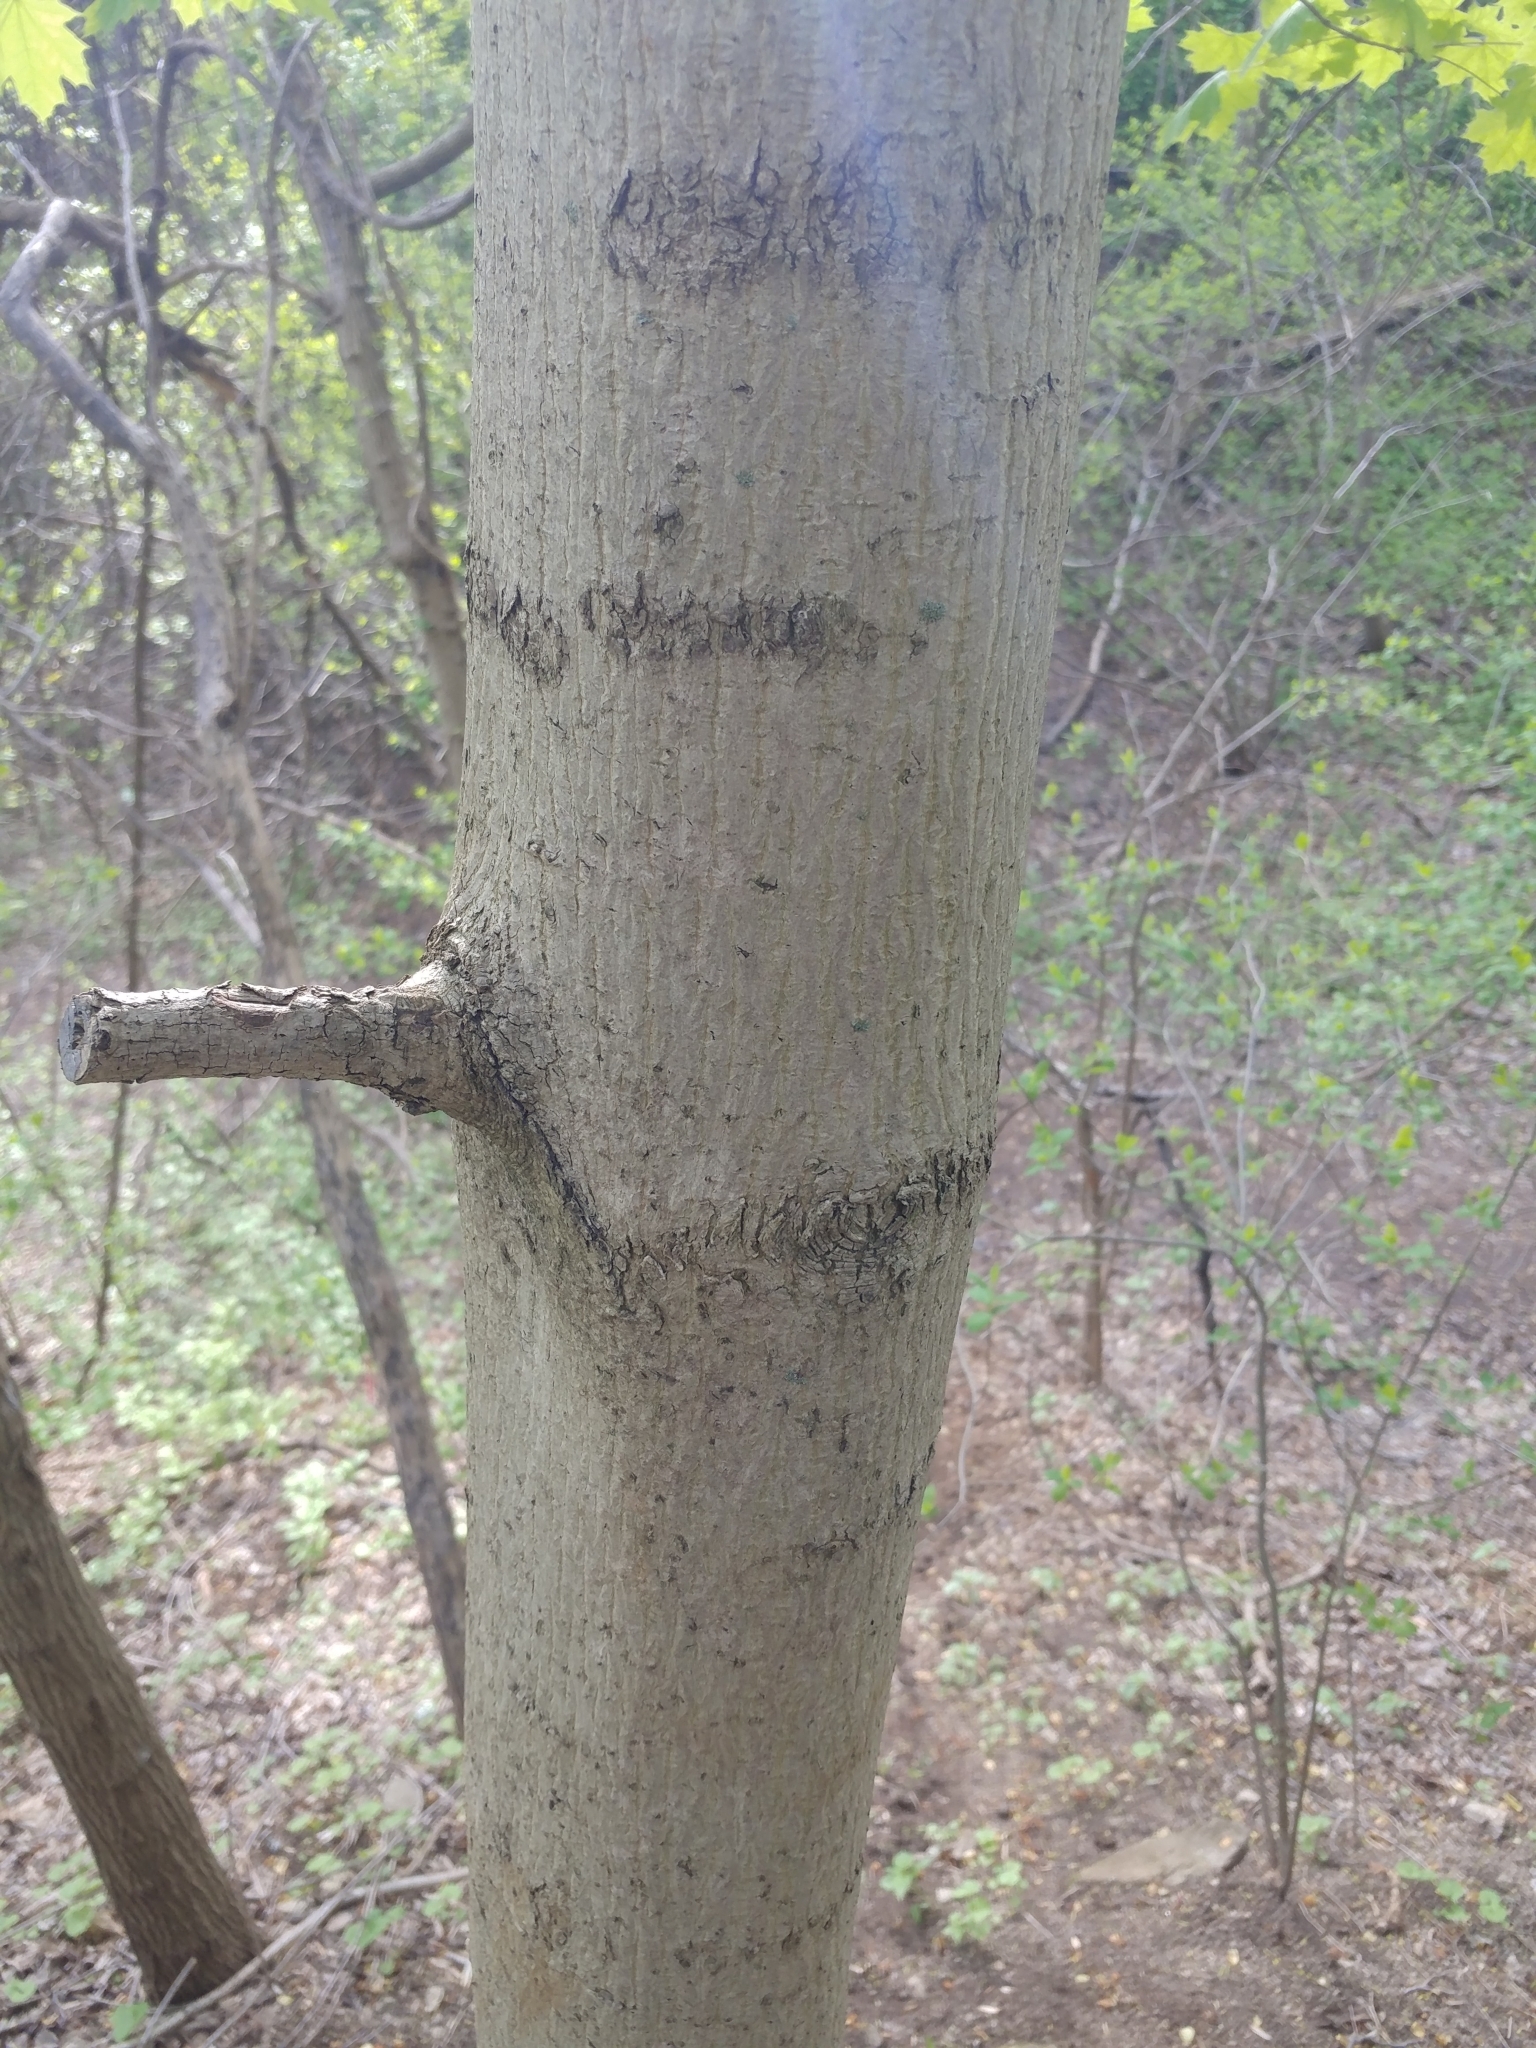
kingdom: Plantae
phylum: Tracheophyta
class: Magnoliopsida
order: Sapindales
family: Sapindaceae
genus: Acer
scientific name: Acer platanoides
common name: Norway maple
